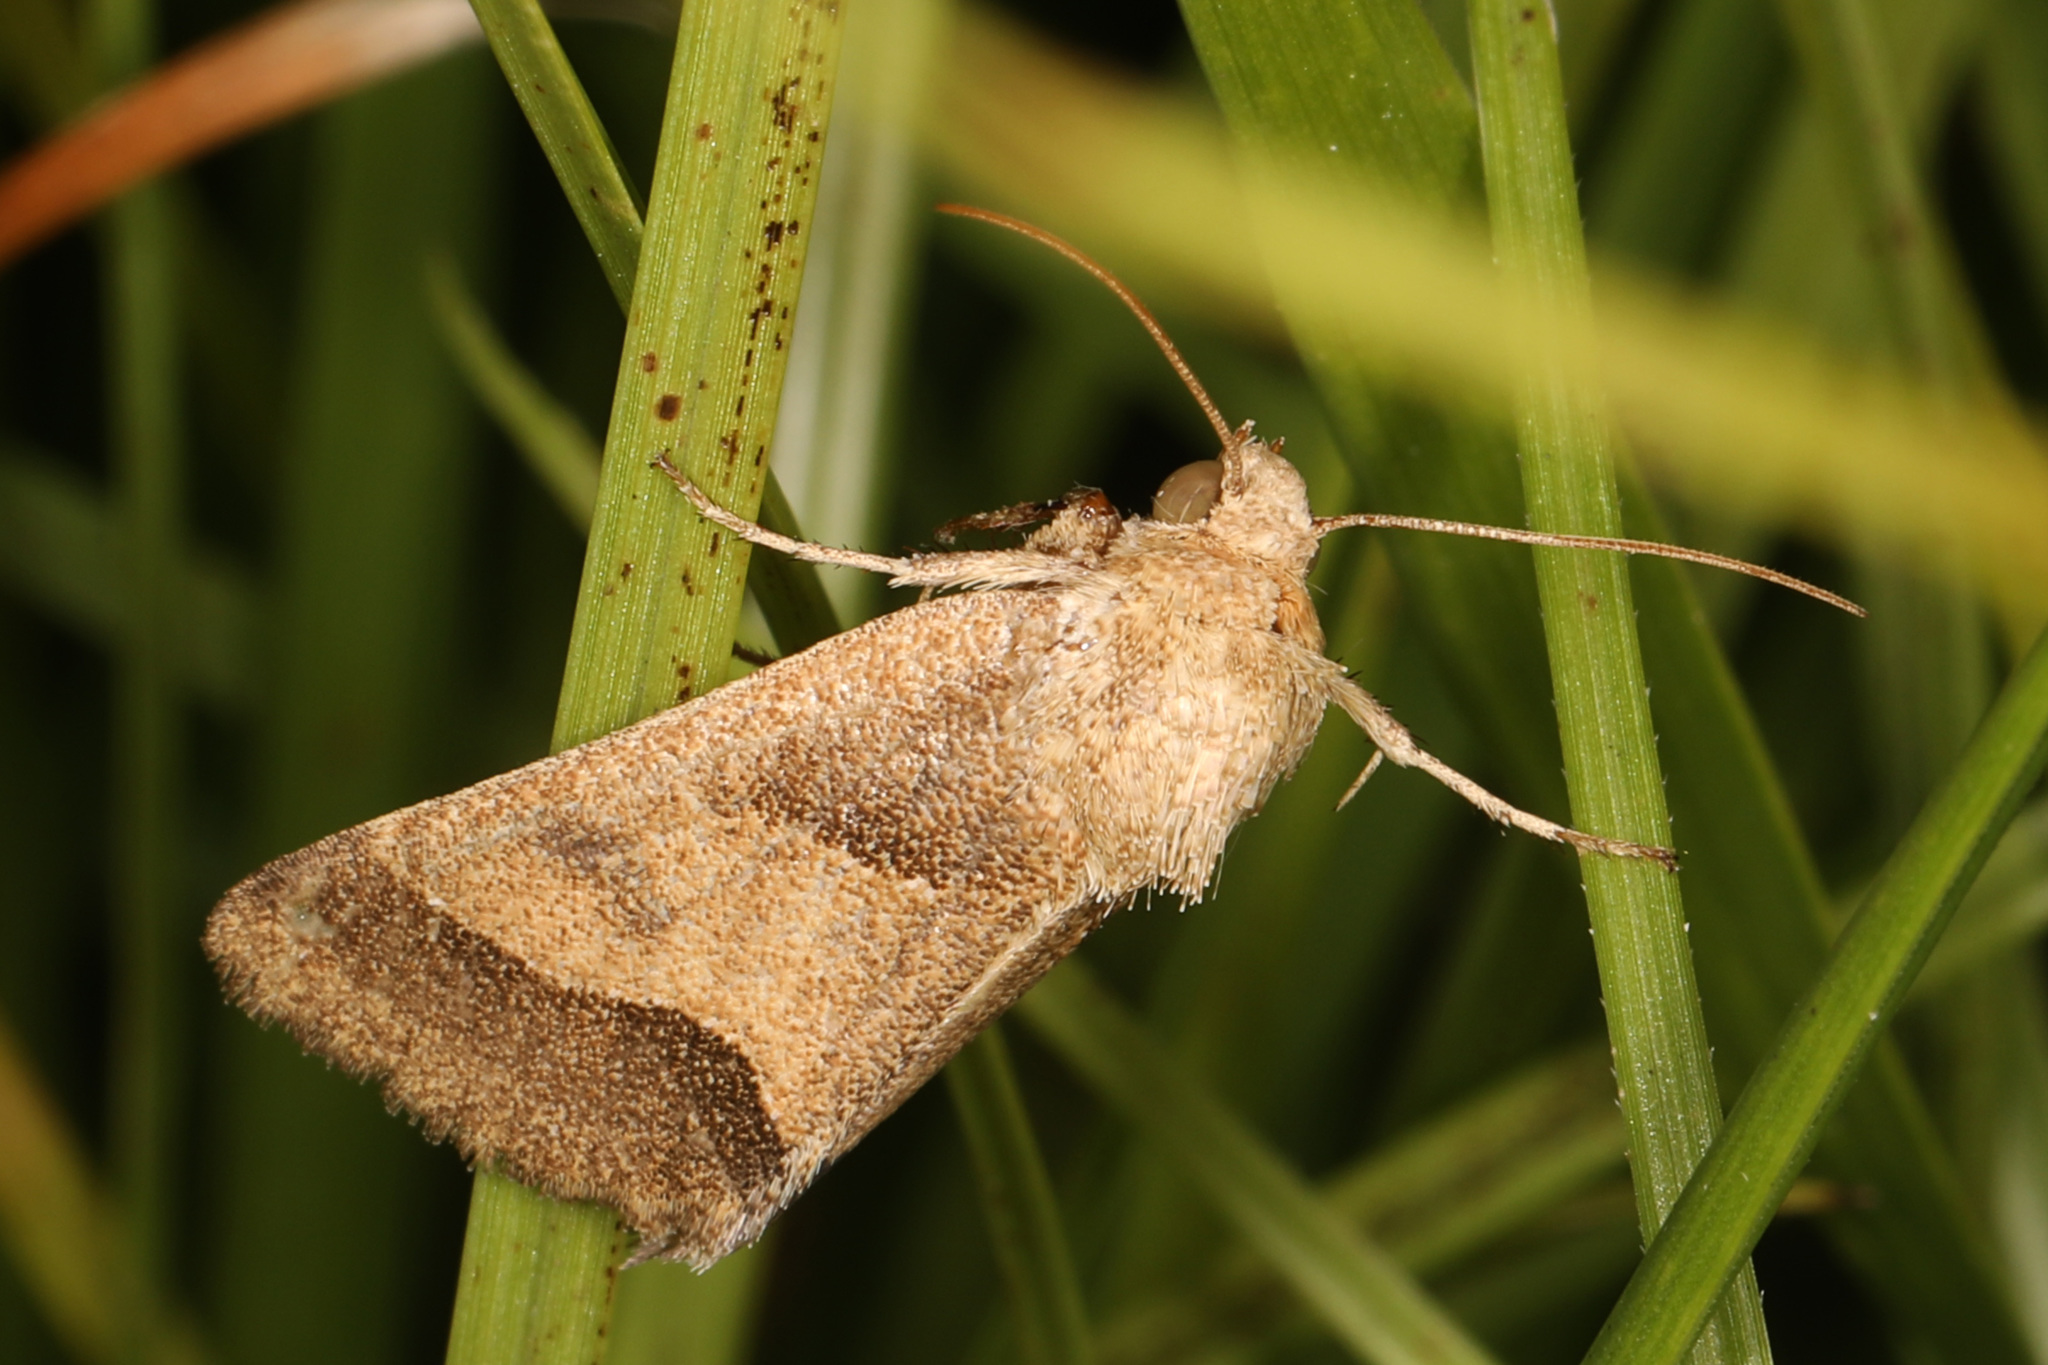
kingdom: Animalia
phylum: Arthropoda
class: Insecta
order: Lepidoptera
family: Noctuidae
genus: Schinia
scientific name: Schinia gracilenta
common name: Slender flower moth
